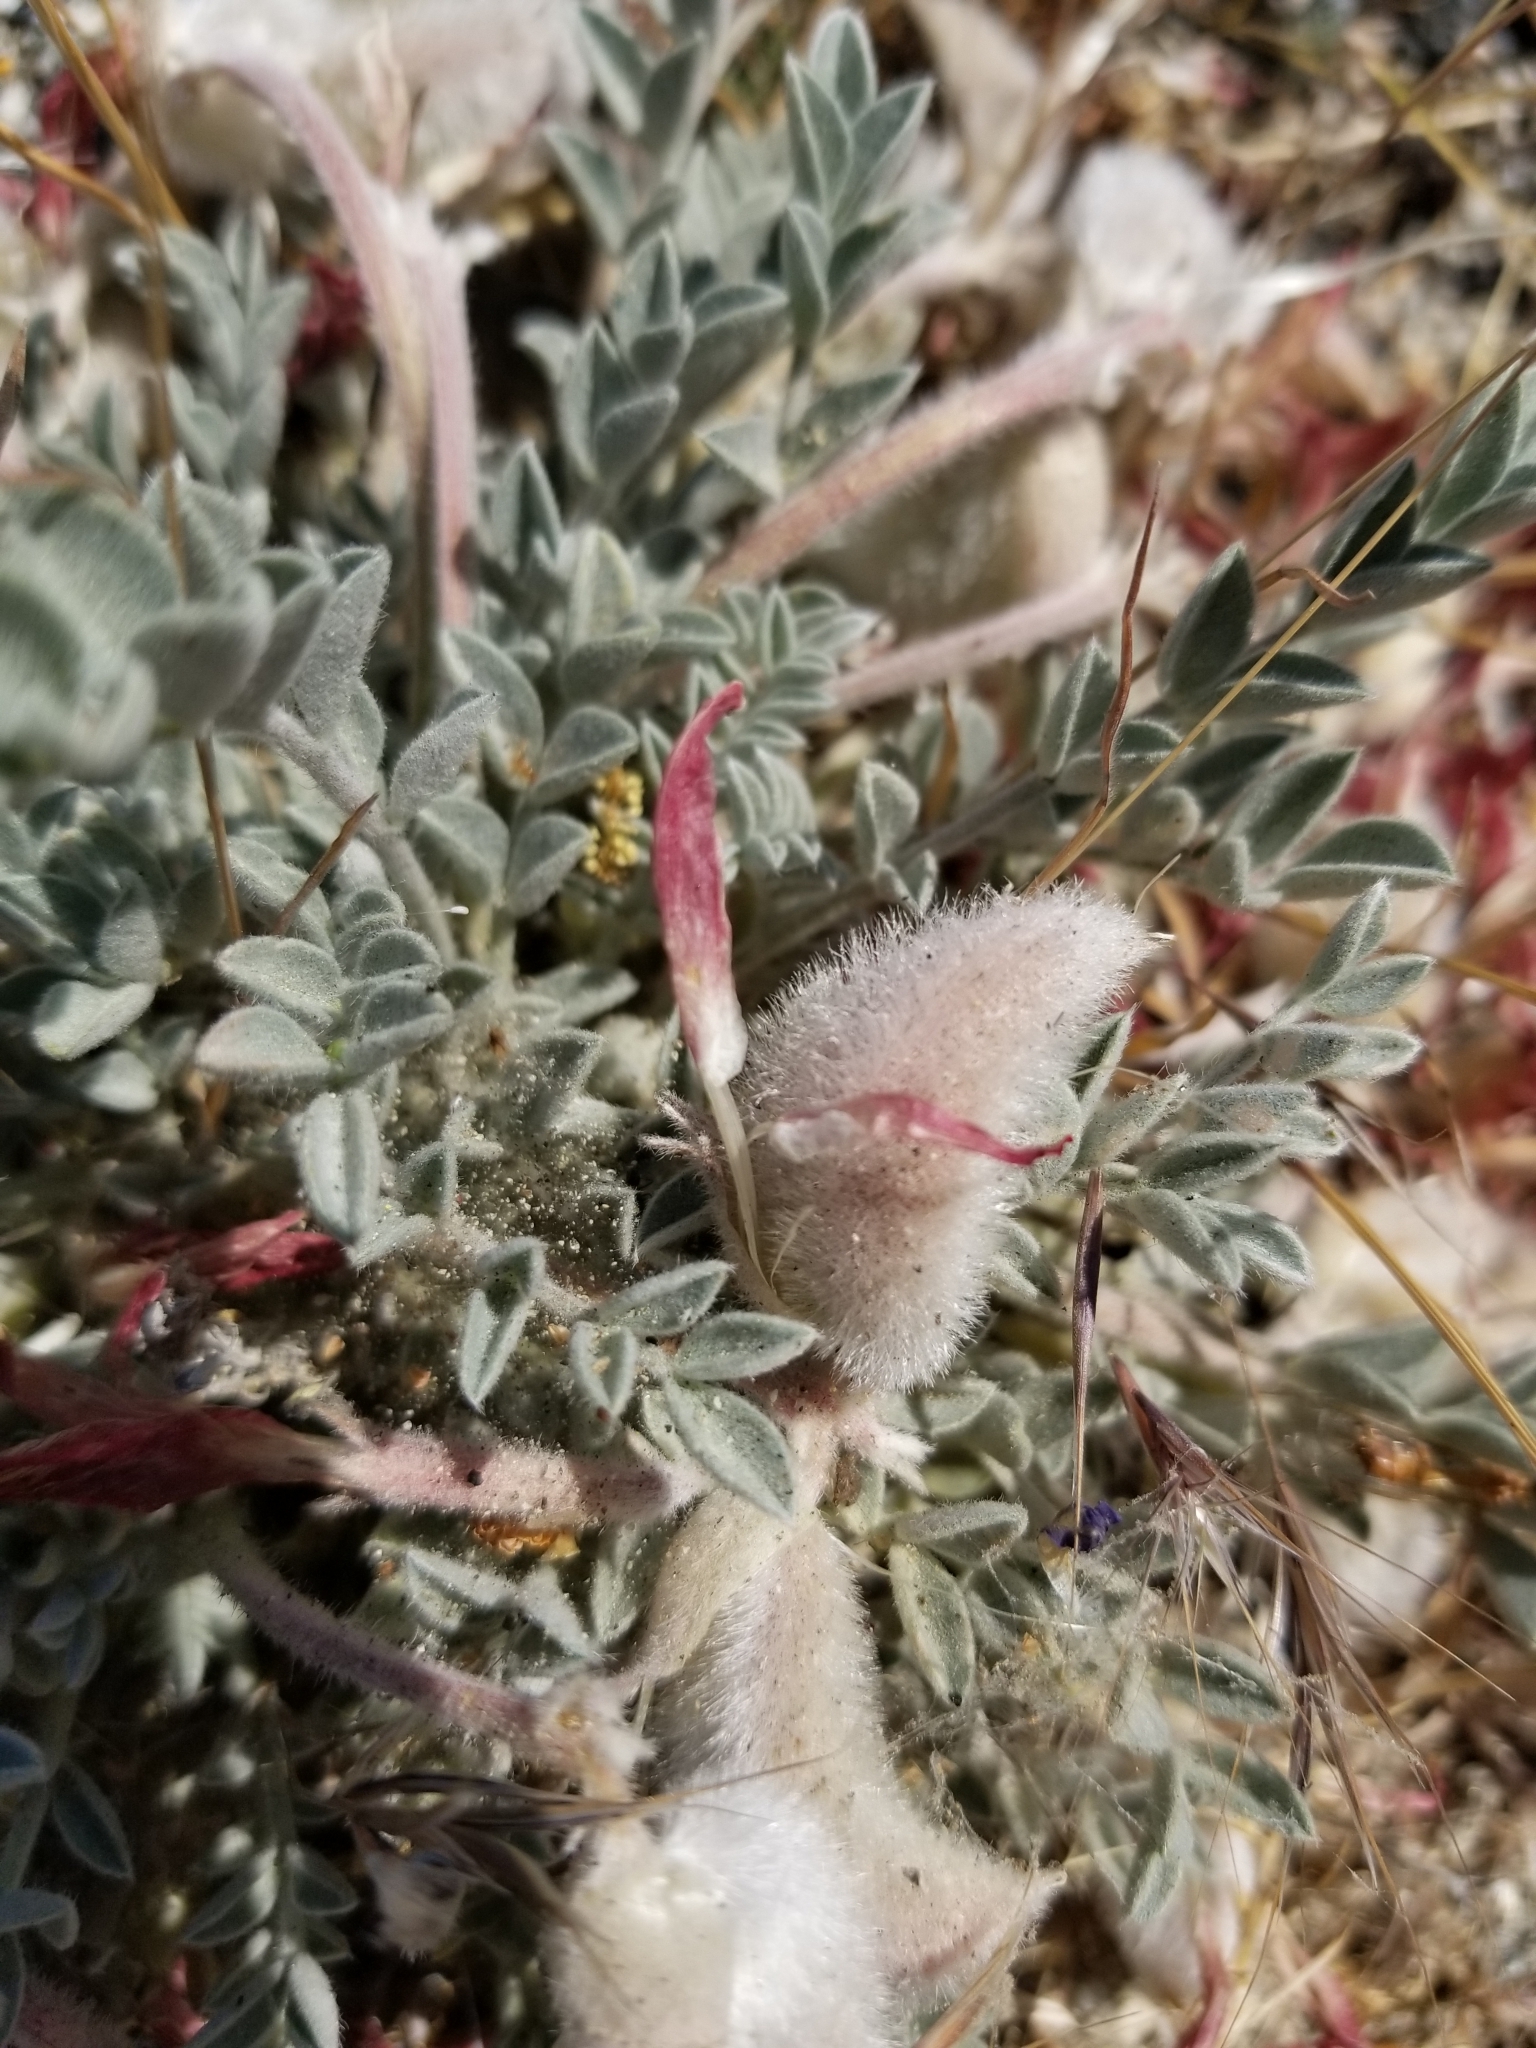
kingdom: Plantae
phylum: Tracheophyta
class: Magnoliopsida
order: Fabales
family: Fabaceae
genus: Astragalus
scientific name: Astragalus coccineus
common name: Scarlet milk-vetch
